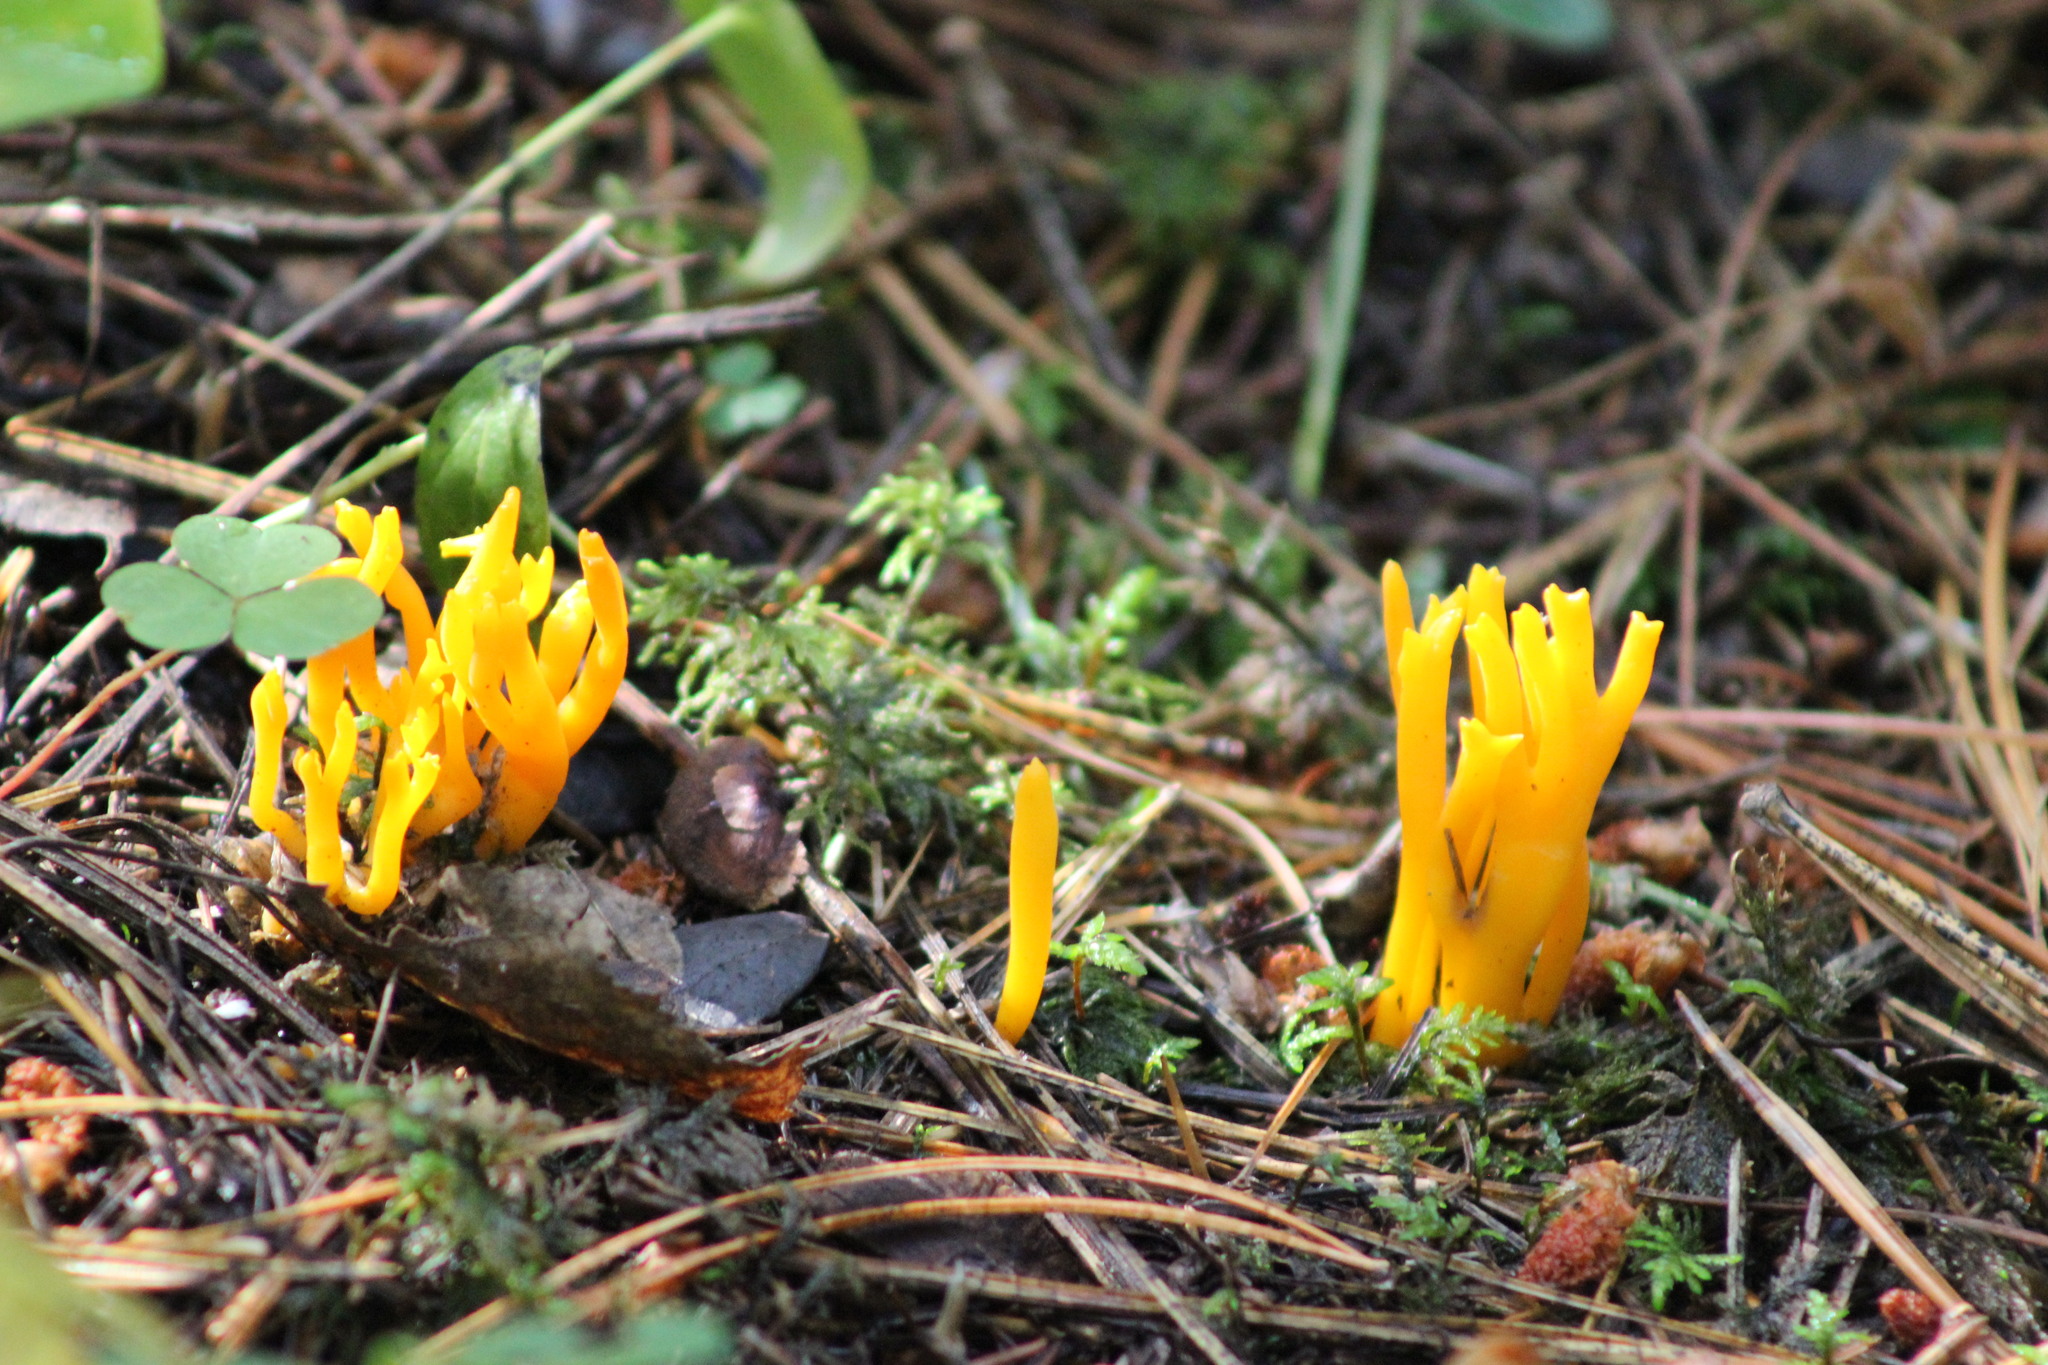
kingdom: Fungi
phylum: Basidiomycota
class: Dacrymycetes
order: Dacrymycetales
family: Dacrymycetaceae
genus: Calocera
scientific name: Calocera viscosa
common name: Yellow stagshorn
